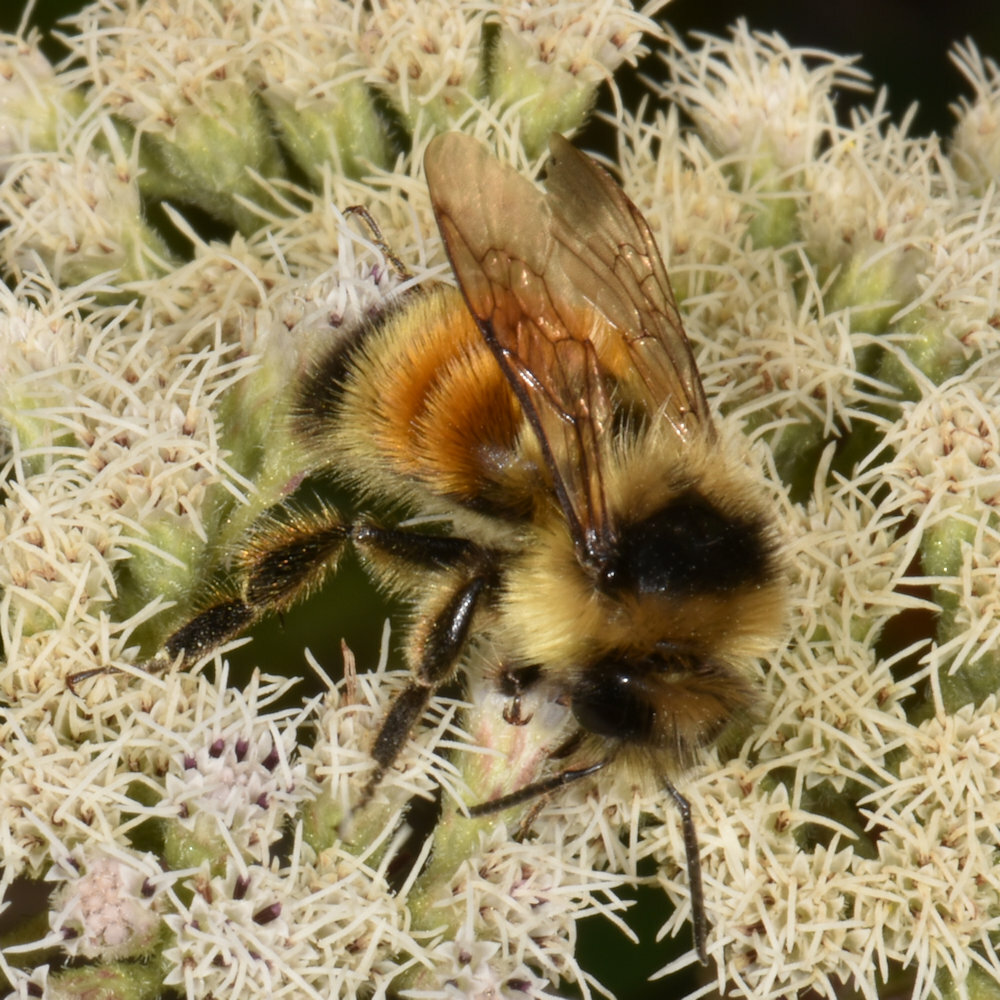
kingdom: Animalia
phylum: Arthropoda
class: Insecta
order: Hymenoptera
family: Apidae
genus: Bombus
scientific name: Bombus ternarius
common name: Tri-colored bumble bee
